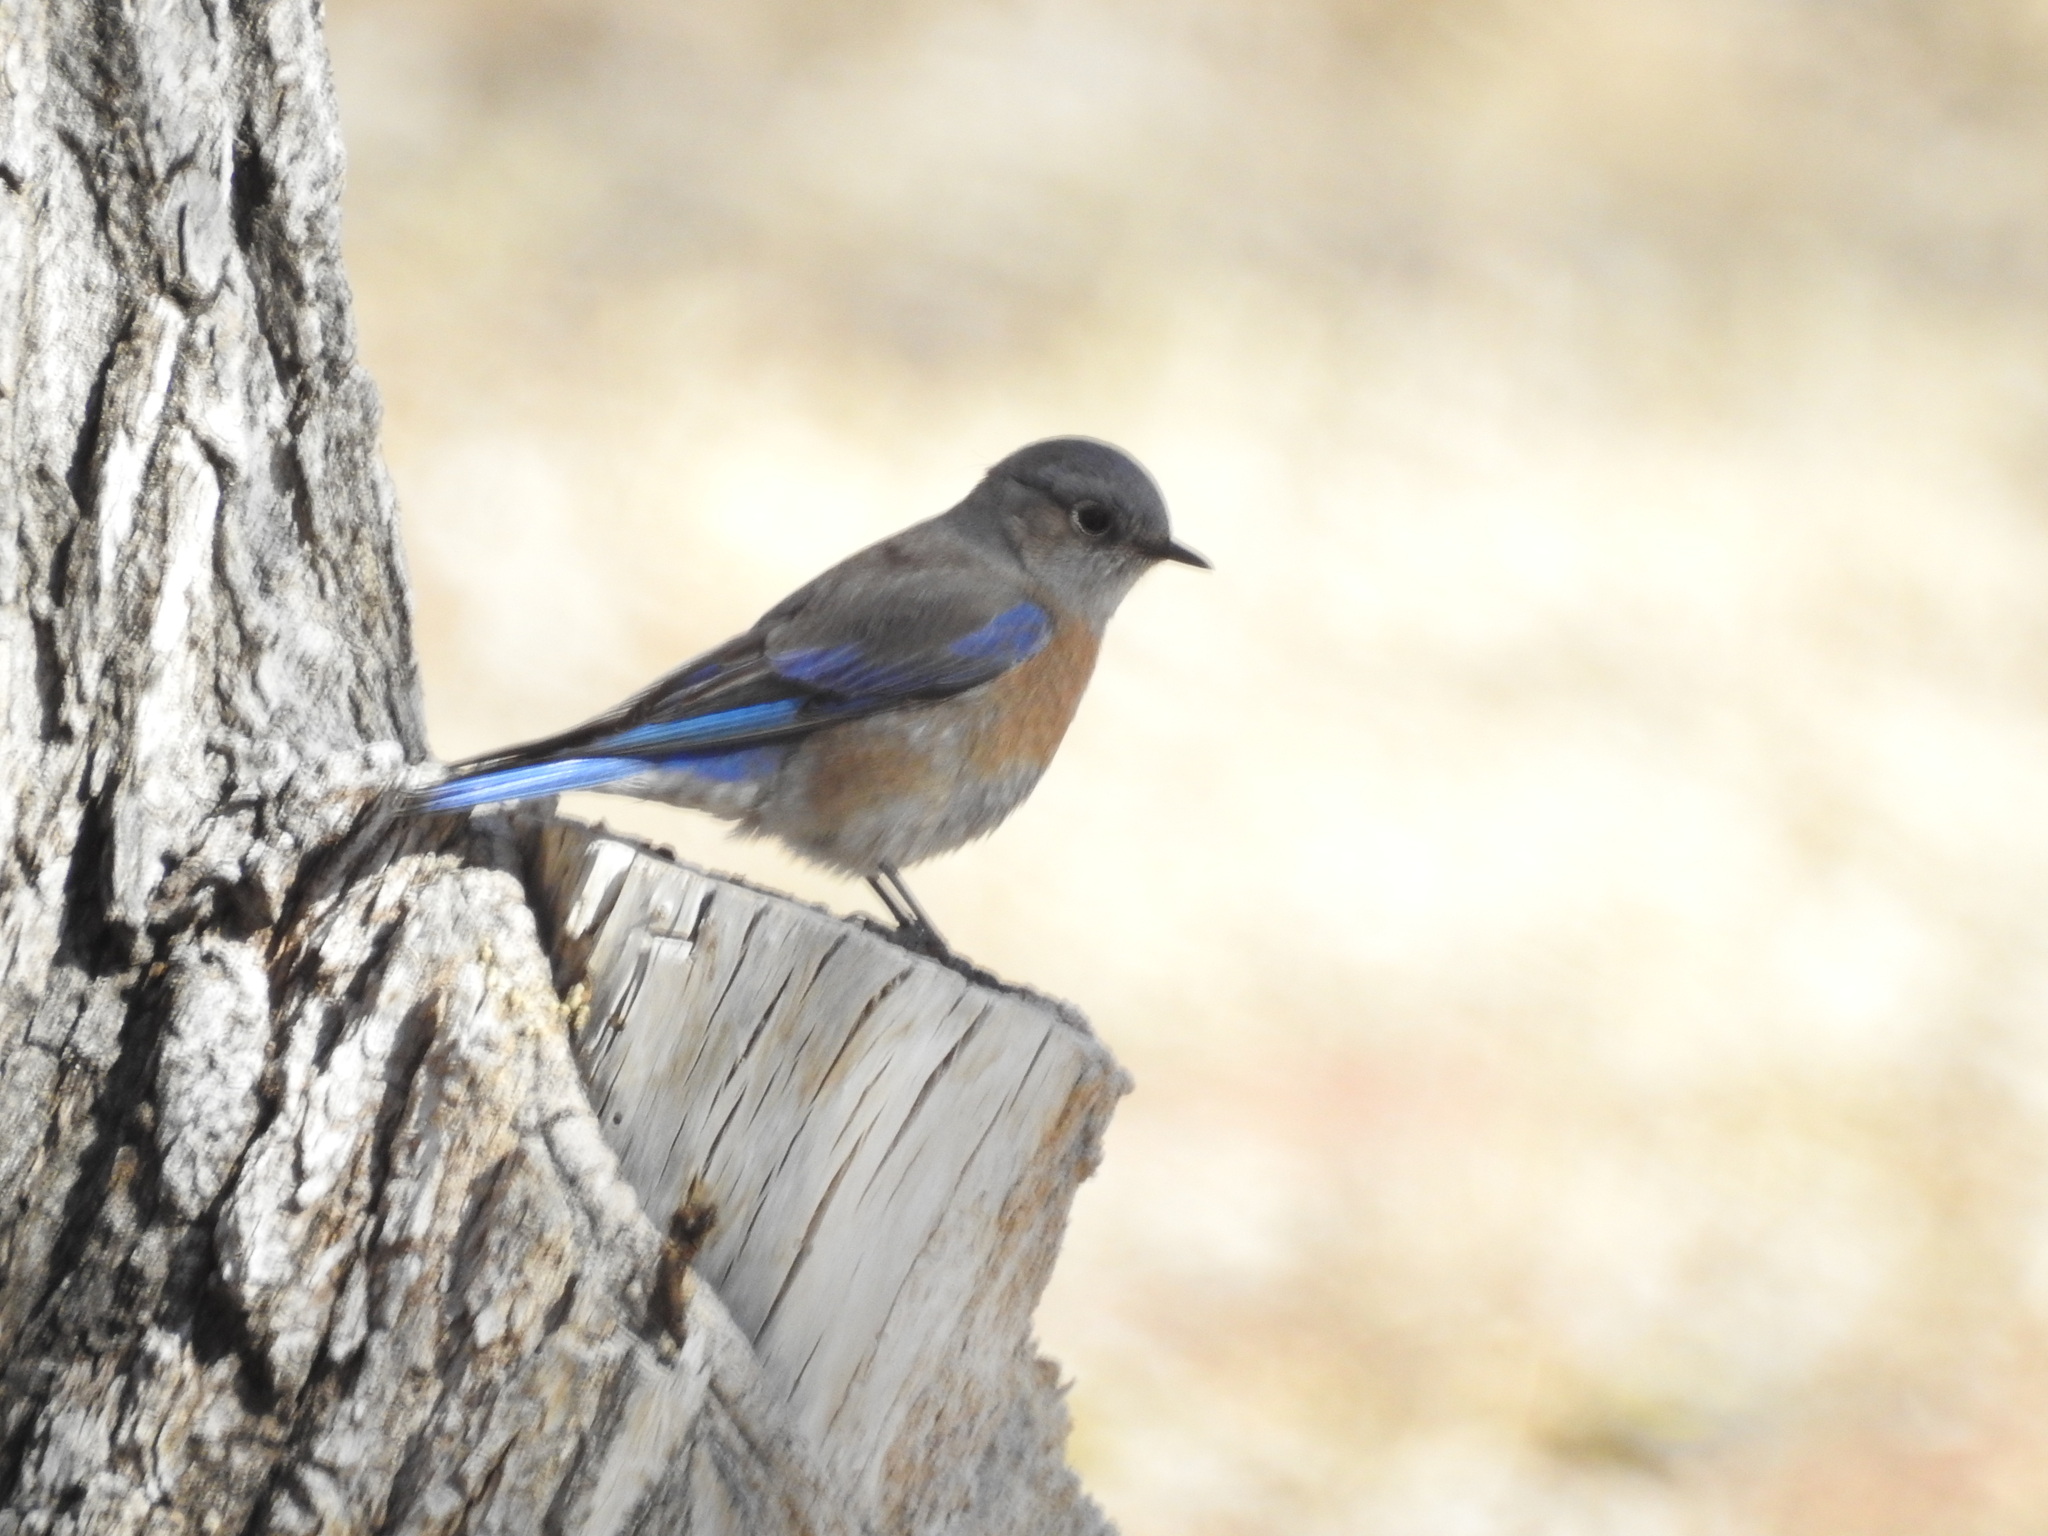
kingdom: Animalia
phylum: Chordata
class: Aves
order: Passeriformes
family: Turdidae
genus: Sialia
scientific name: Sialia mexicana
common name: Western bluebird
